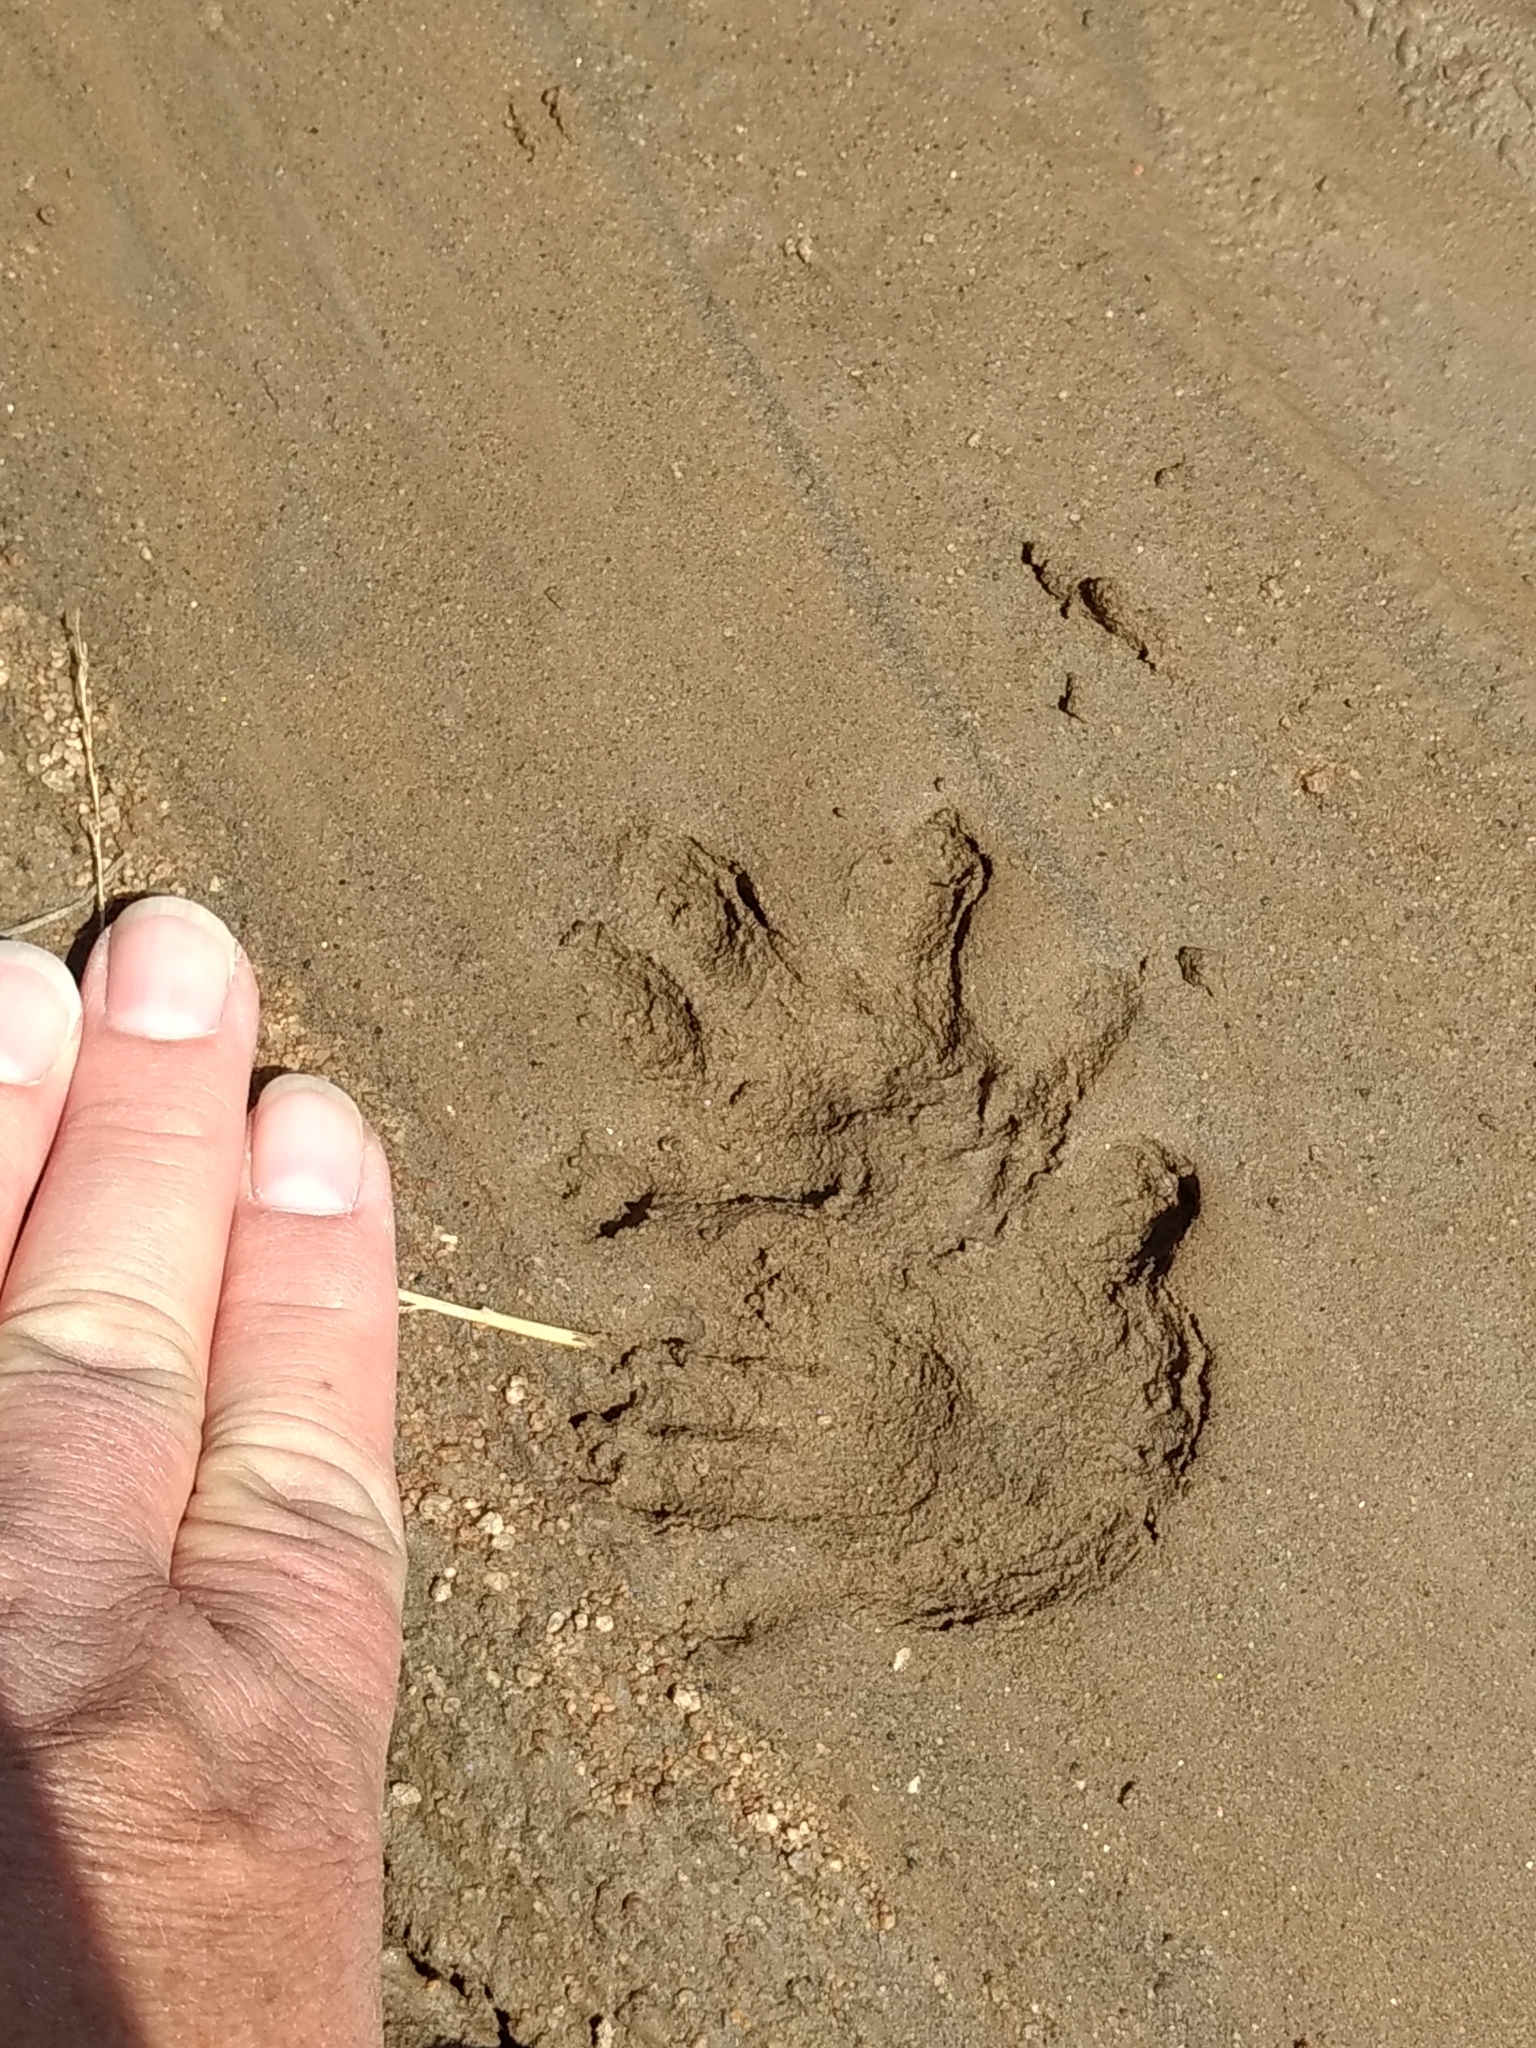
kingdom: Animalia
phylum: Chordata
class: Mammalia
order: Didelphimorphia
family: Didelphidae
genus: Didelphis
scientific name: Didelphis virginiana
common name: Virginia opossum
